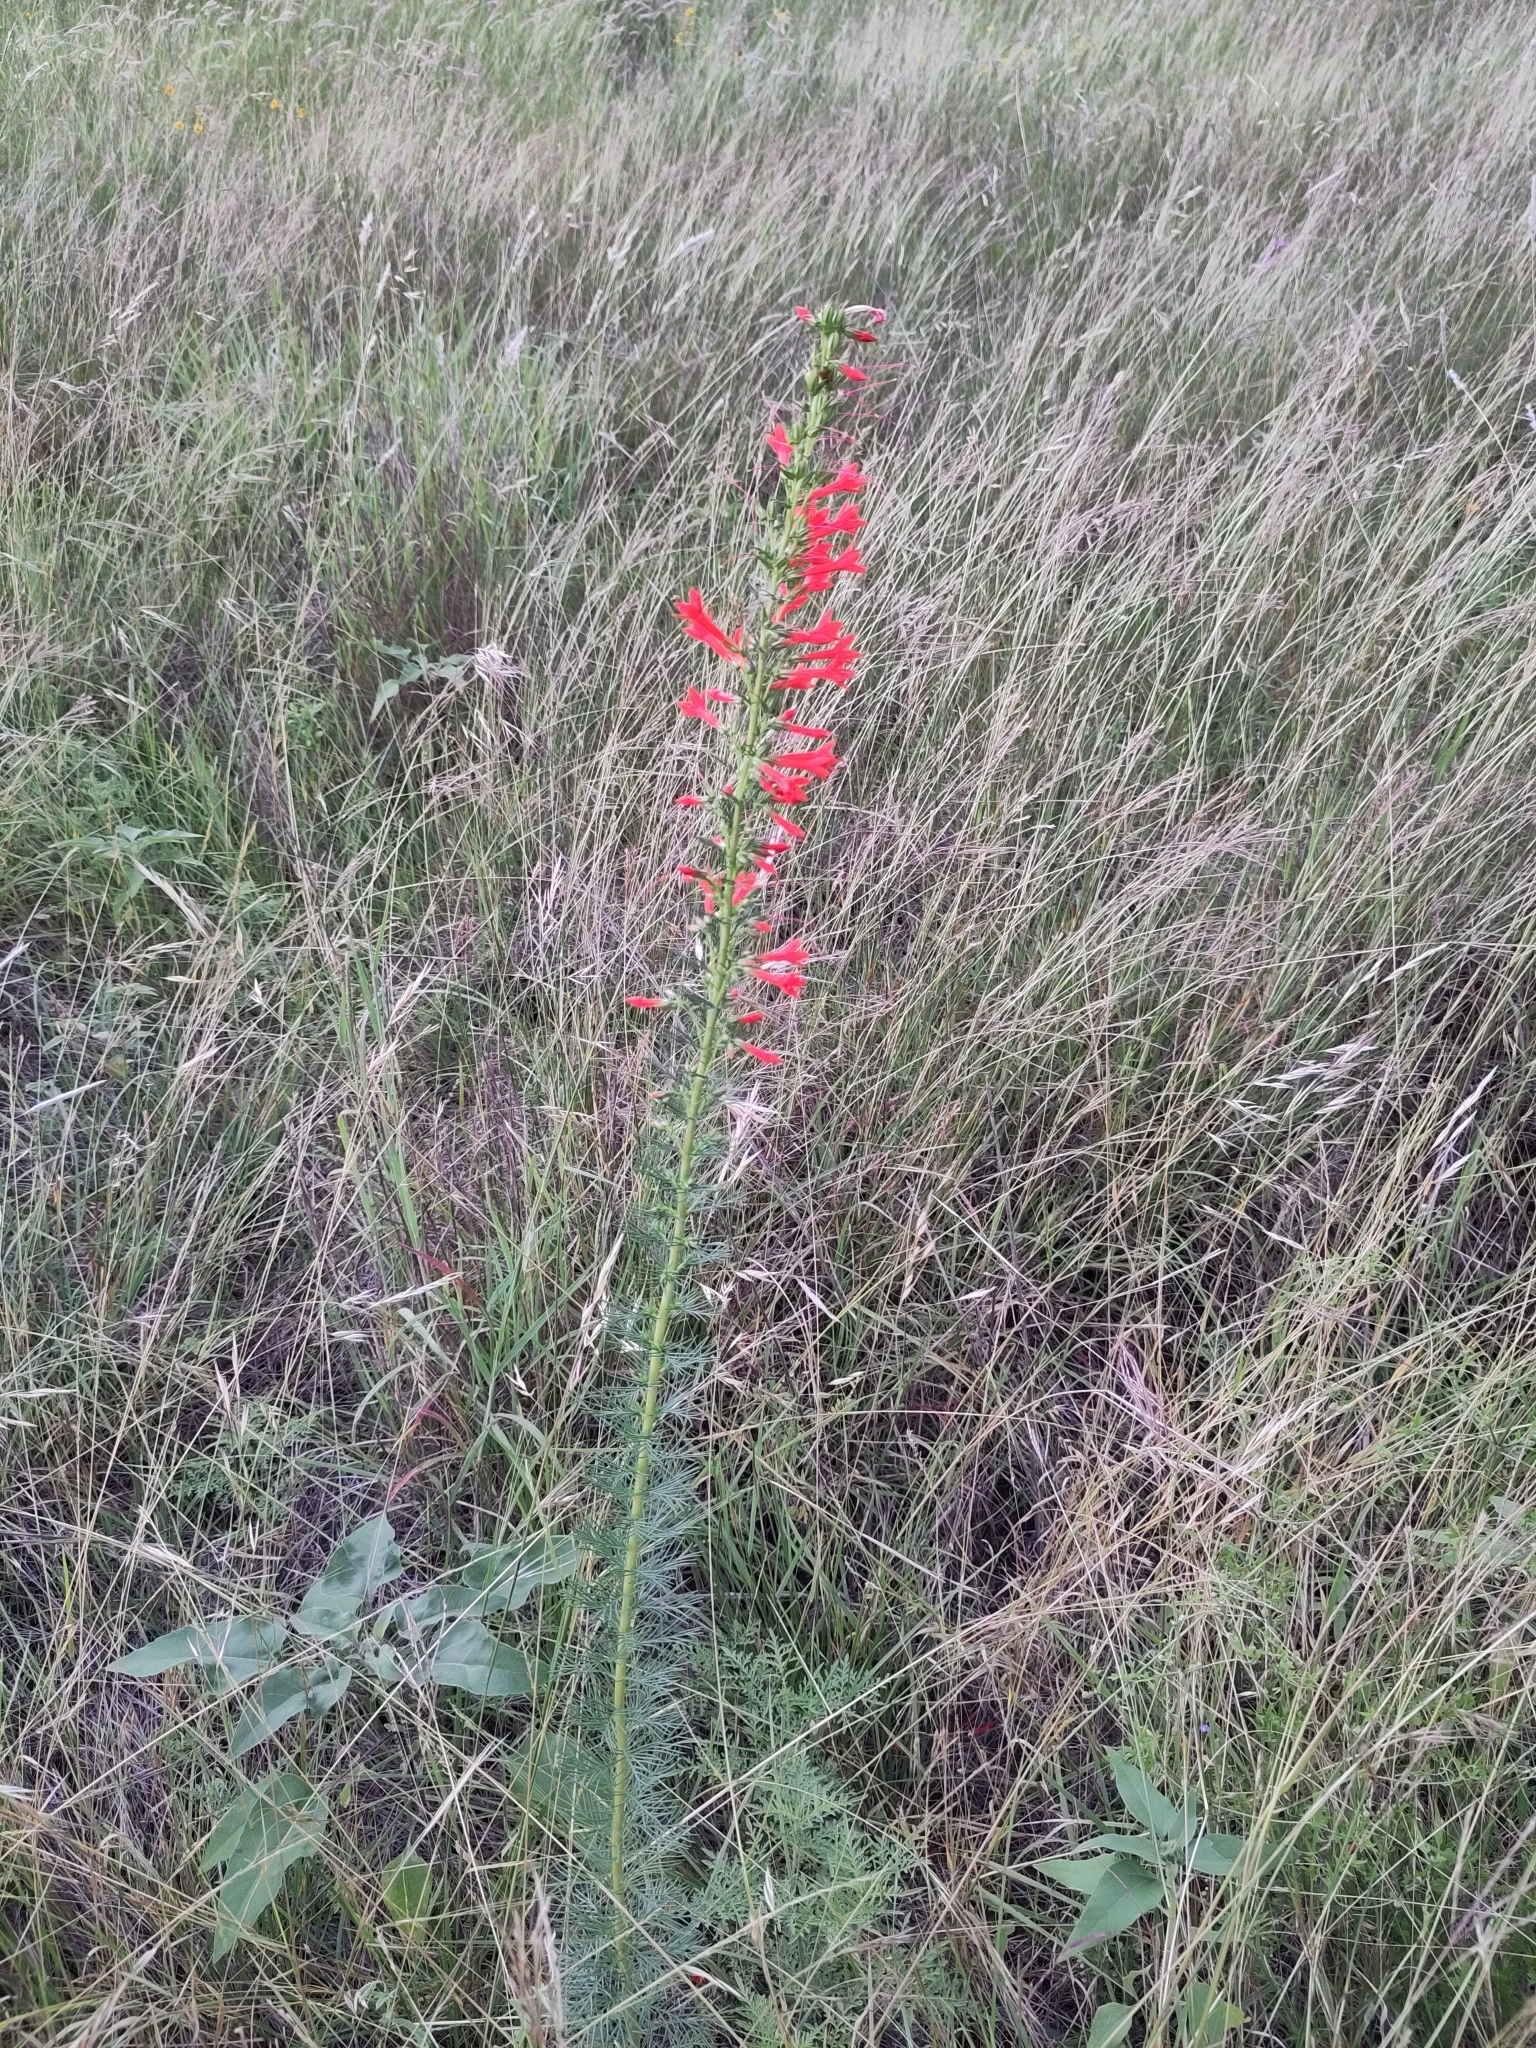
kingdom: Plantae
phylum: Tracheophyta
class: Magnoliopsida
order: Ericales
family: Polemoniaceae
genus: Ipomopsis
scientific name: Ipomopsis rubra
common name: Skyrocket
